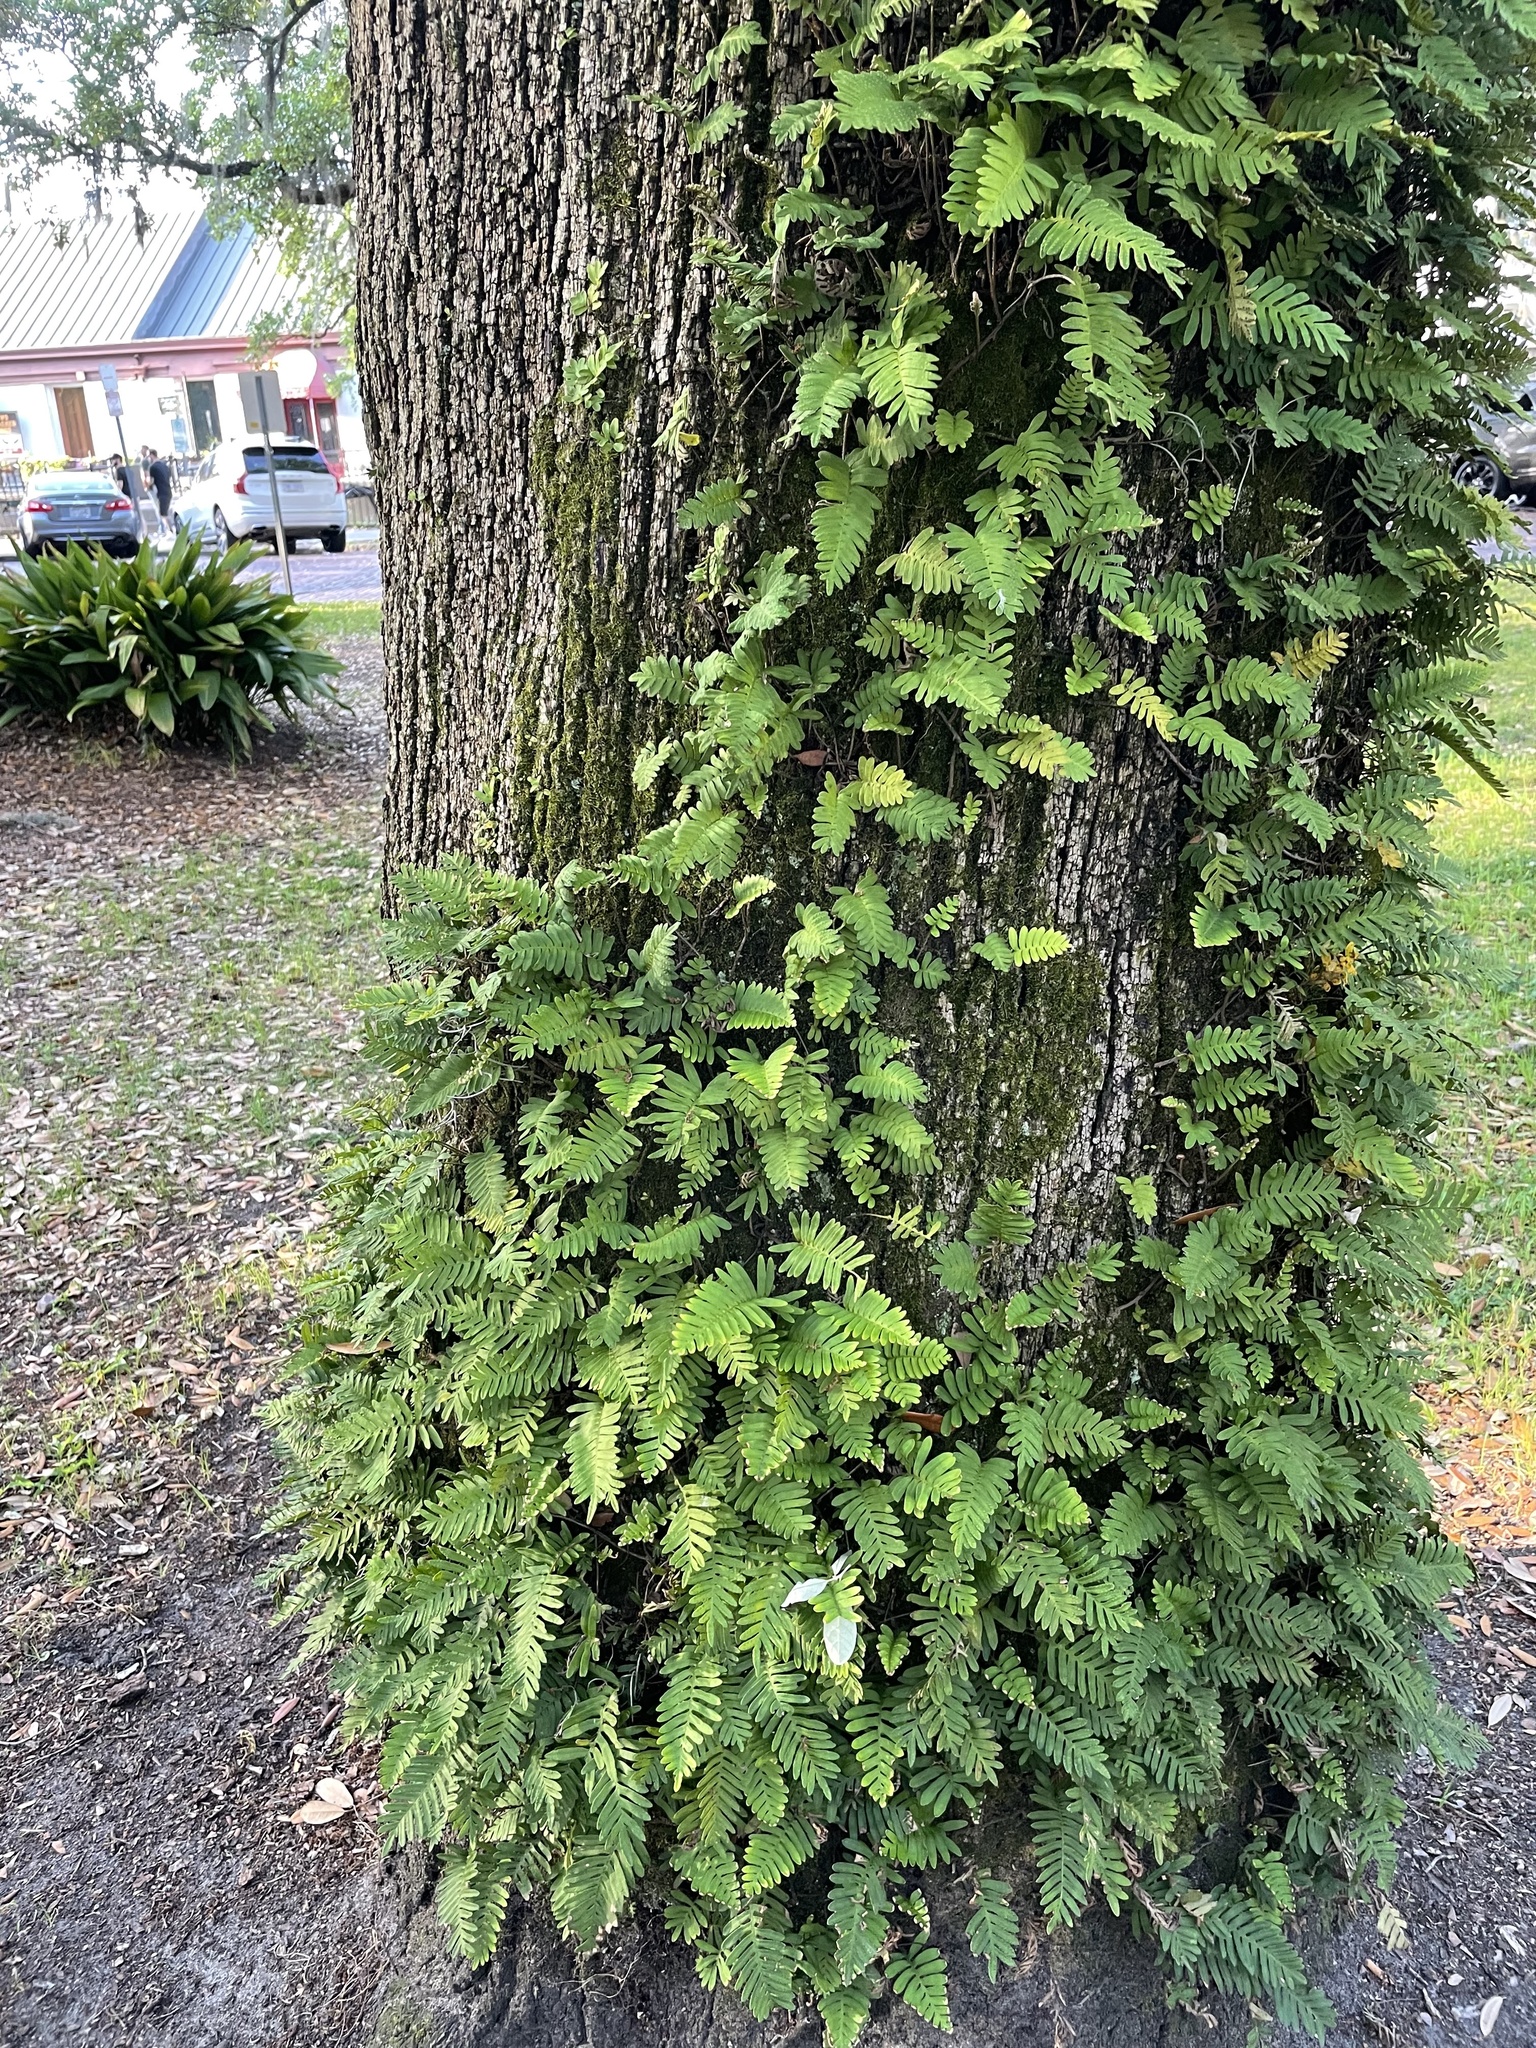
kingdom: Plantae
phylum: Tracheophyta
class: Polypodiopsida
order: Polypodiales
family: Polypodiaceae
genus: Pleopeltis
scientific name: Pleopeltis michauxiana
